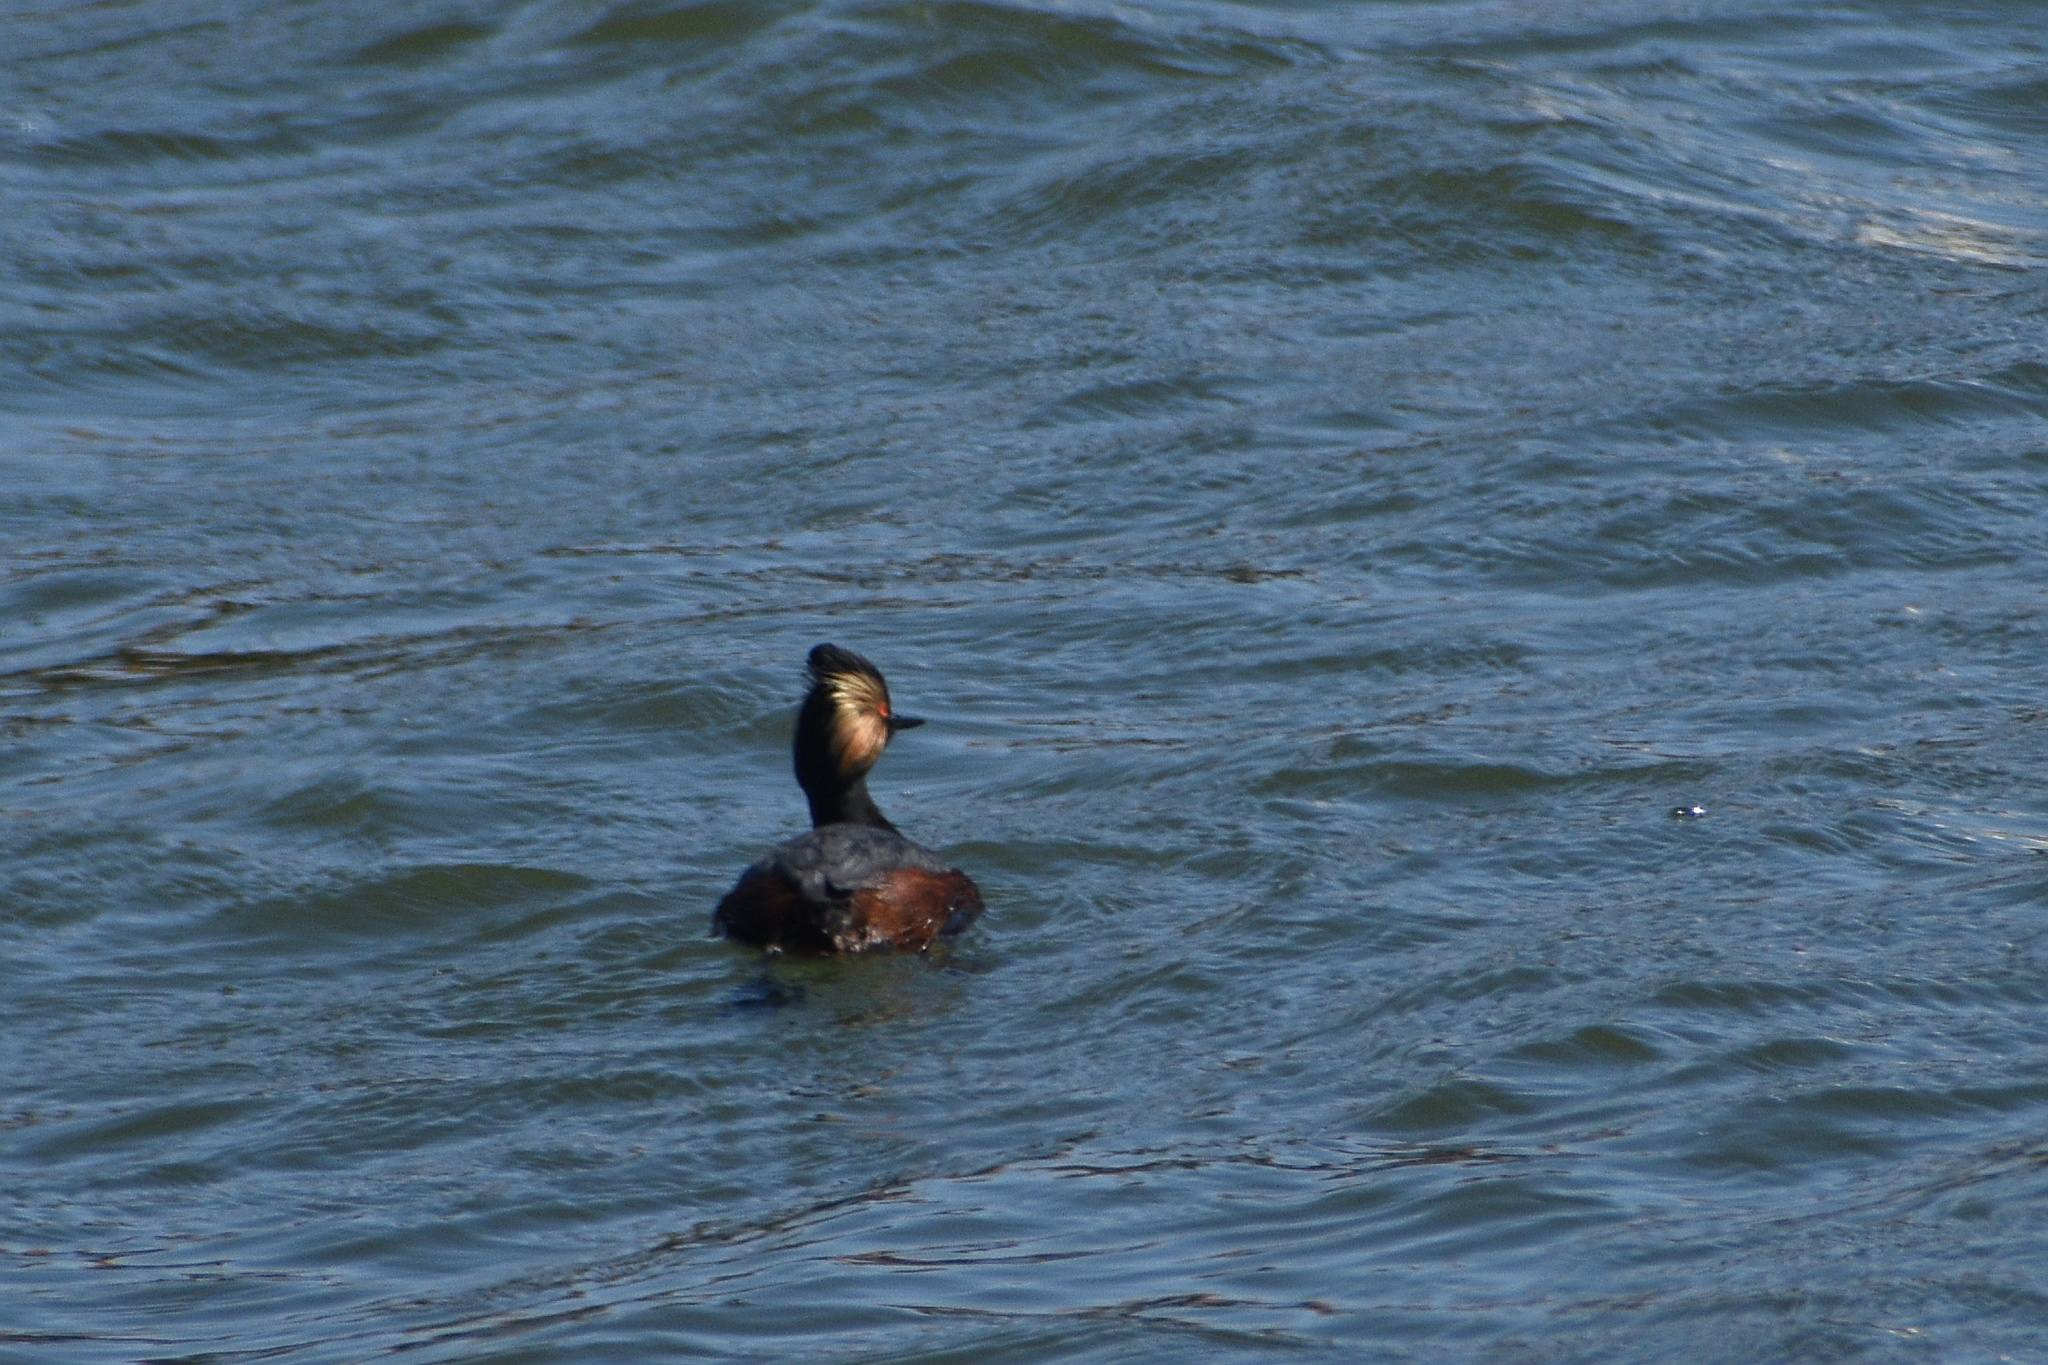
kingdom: Animalia
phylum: Chordata
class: Aves
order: Podicipediformes
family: Podicipedidae
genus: Podiceps
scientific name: Podiceps nigricollis
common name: Black-necked grebe
